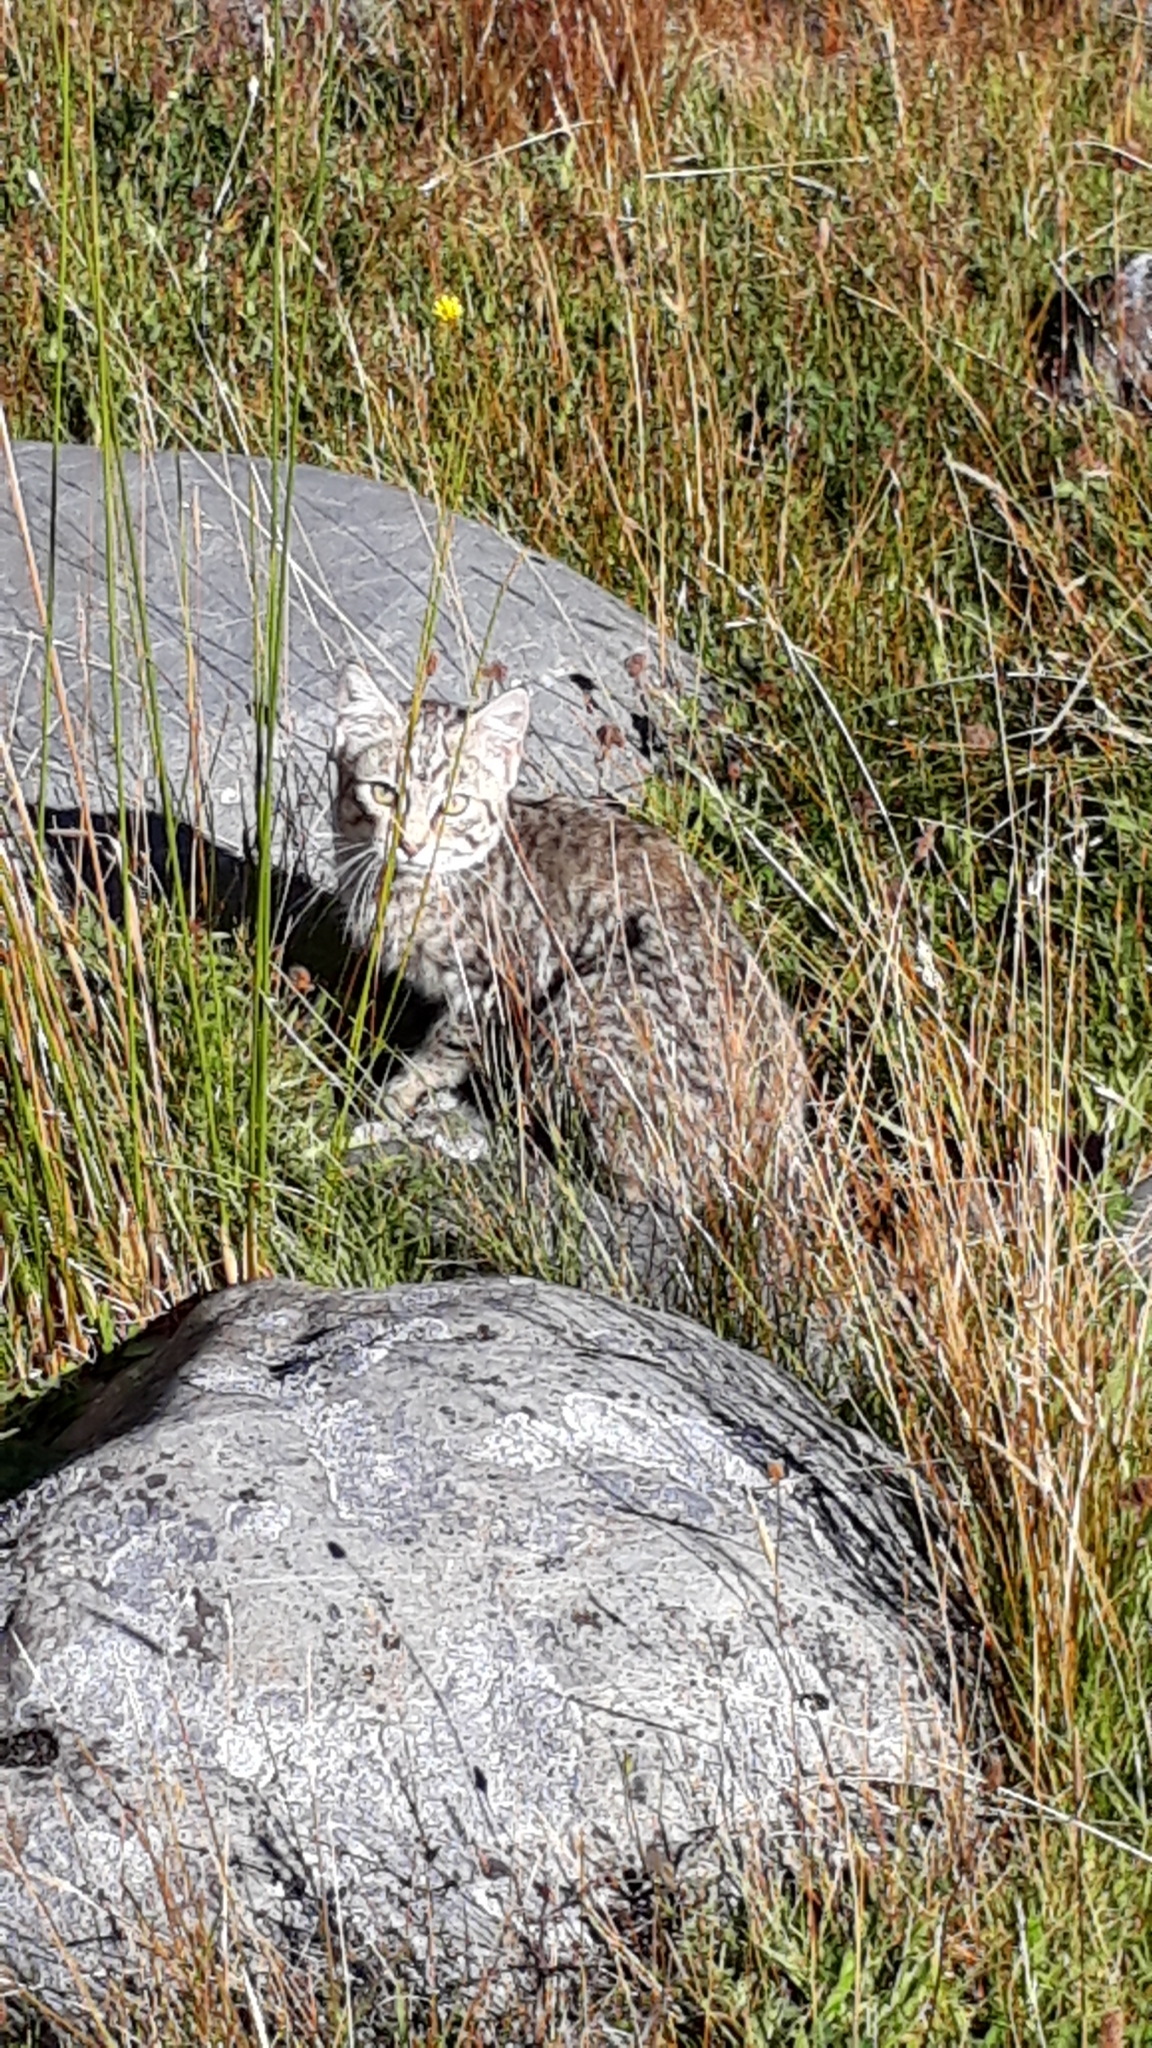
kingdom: Animalia
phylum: Chordata
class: Mammalia
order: Carnivora
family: Felidae
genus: Felis
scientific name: Felis catus
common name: Domestic cat
